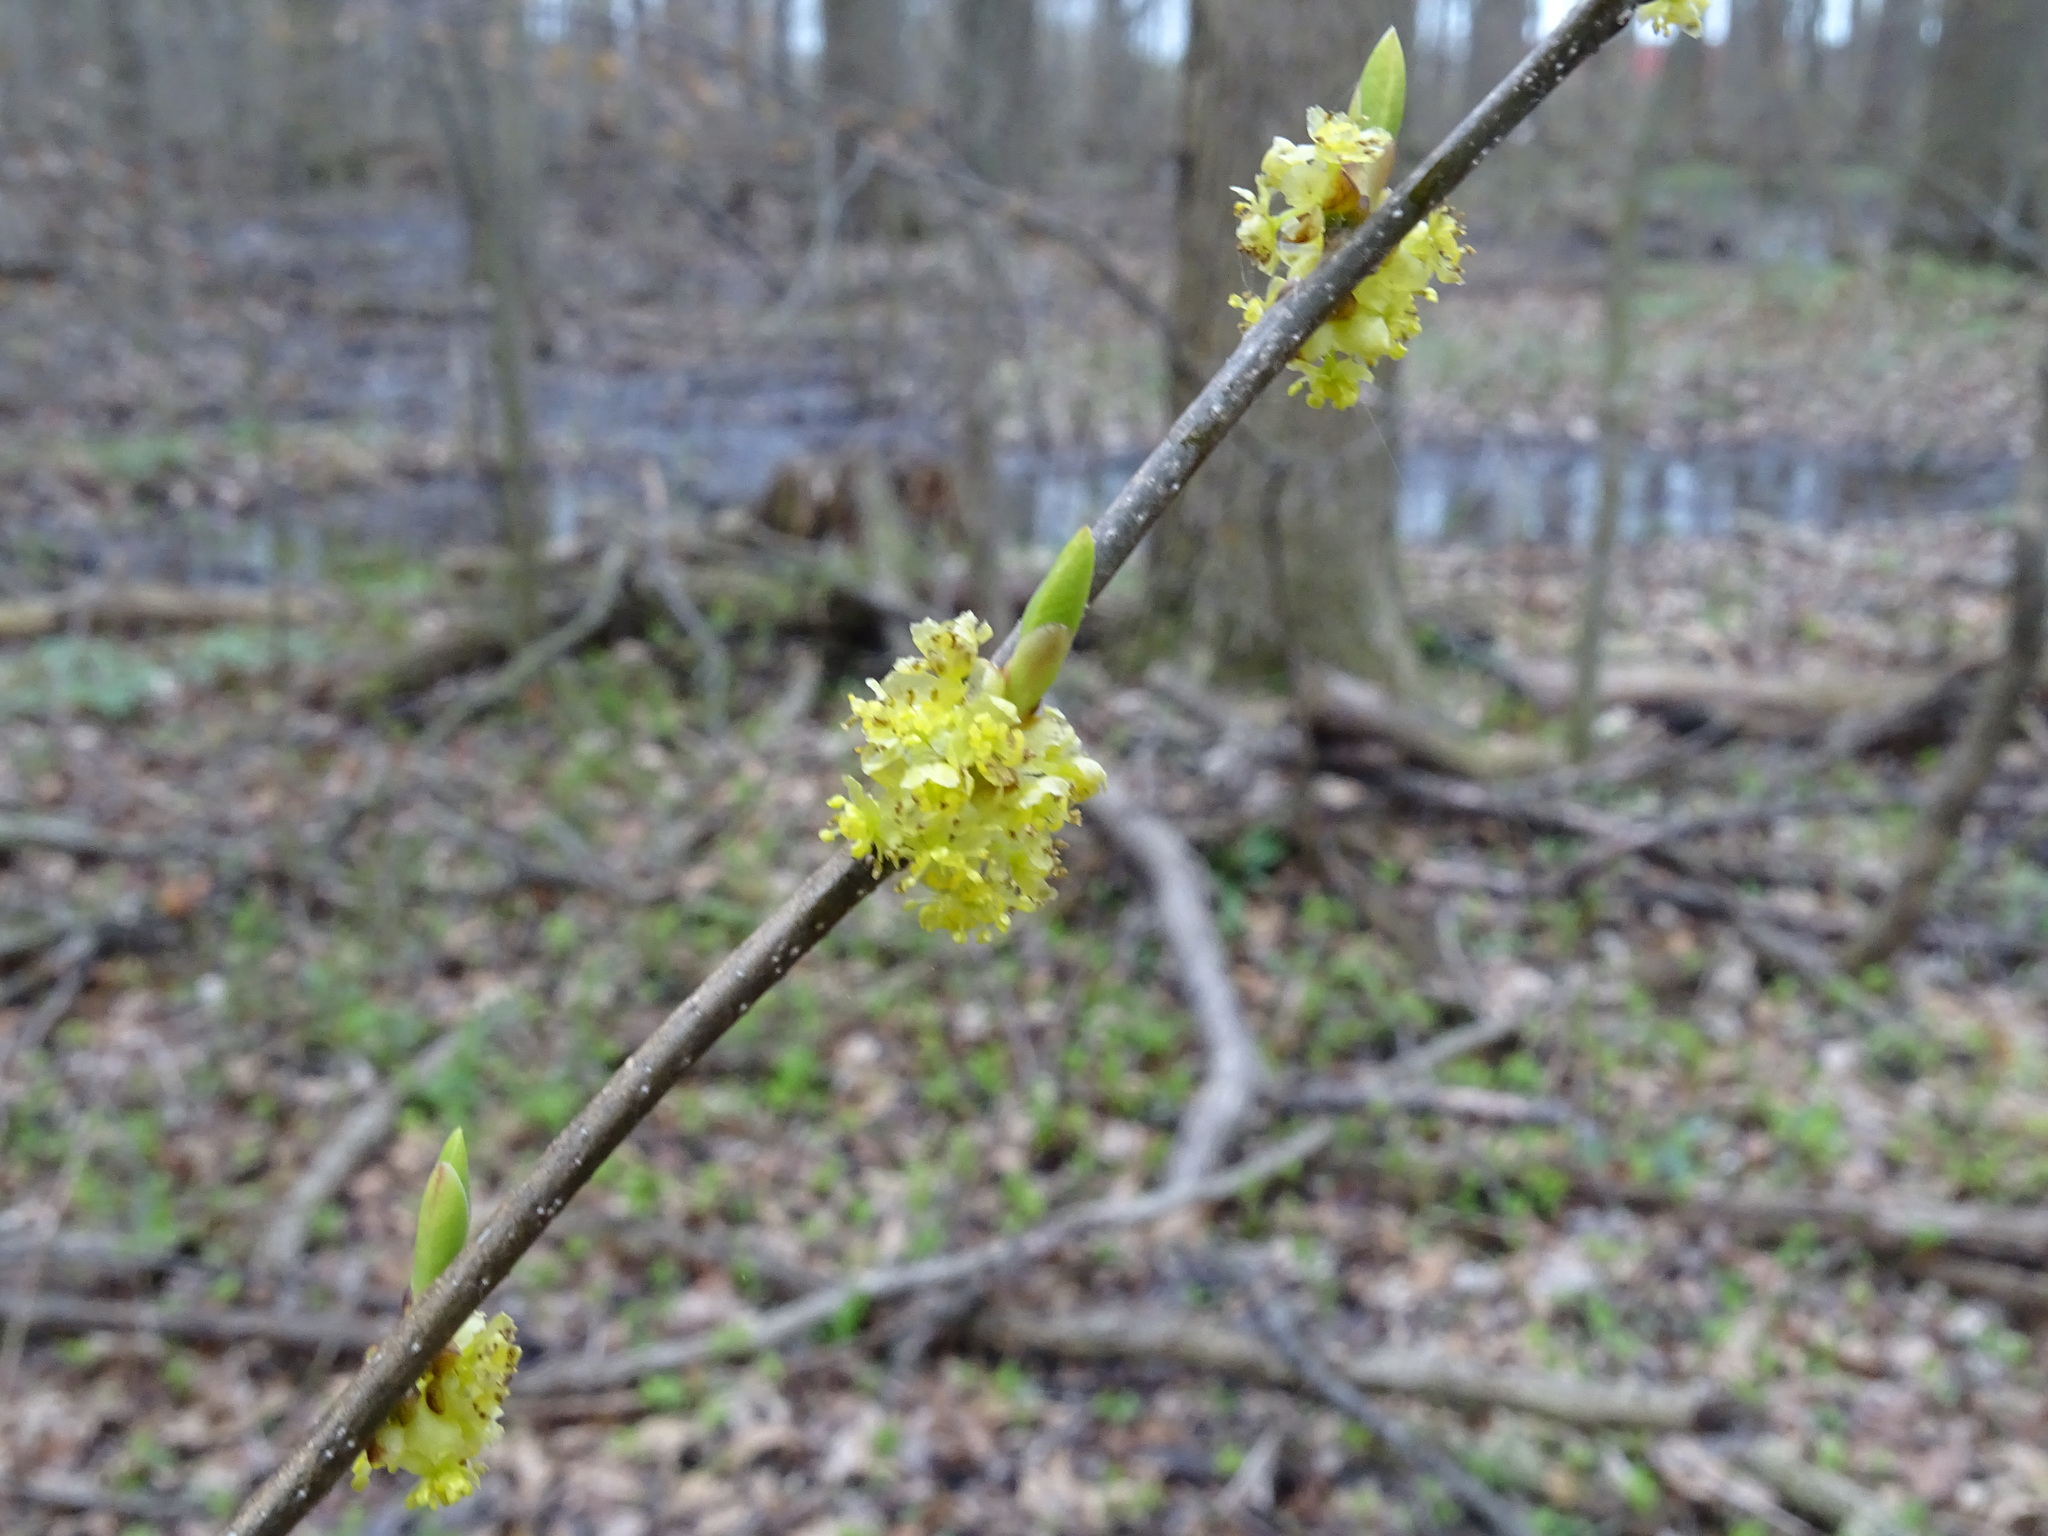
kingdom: Plantae
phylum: Tracheophyta
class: Magnoliopsida
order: Laurales
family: Lauraceae
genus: Lindera
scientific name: Lindera benzoin
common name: Spicebush
